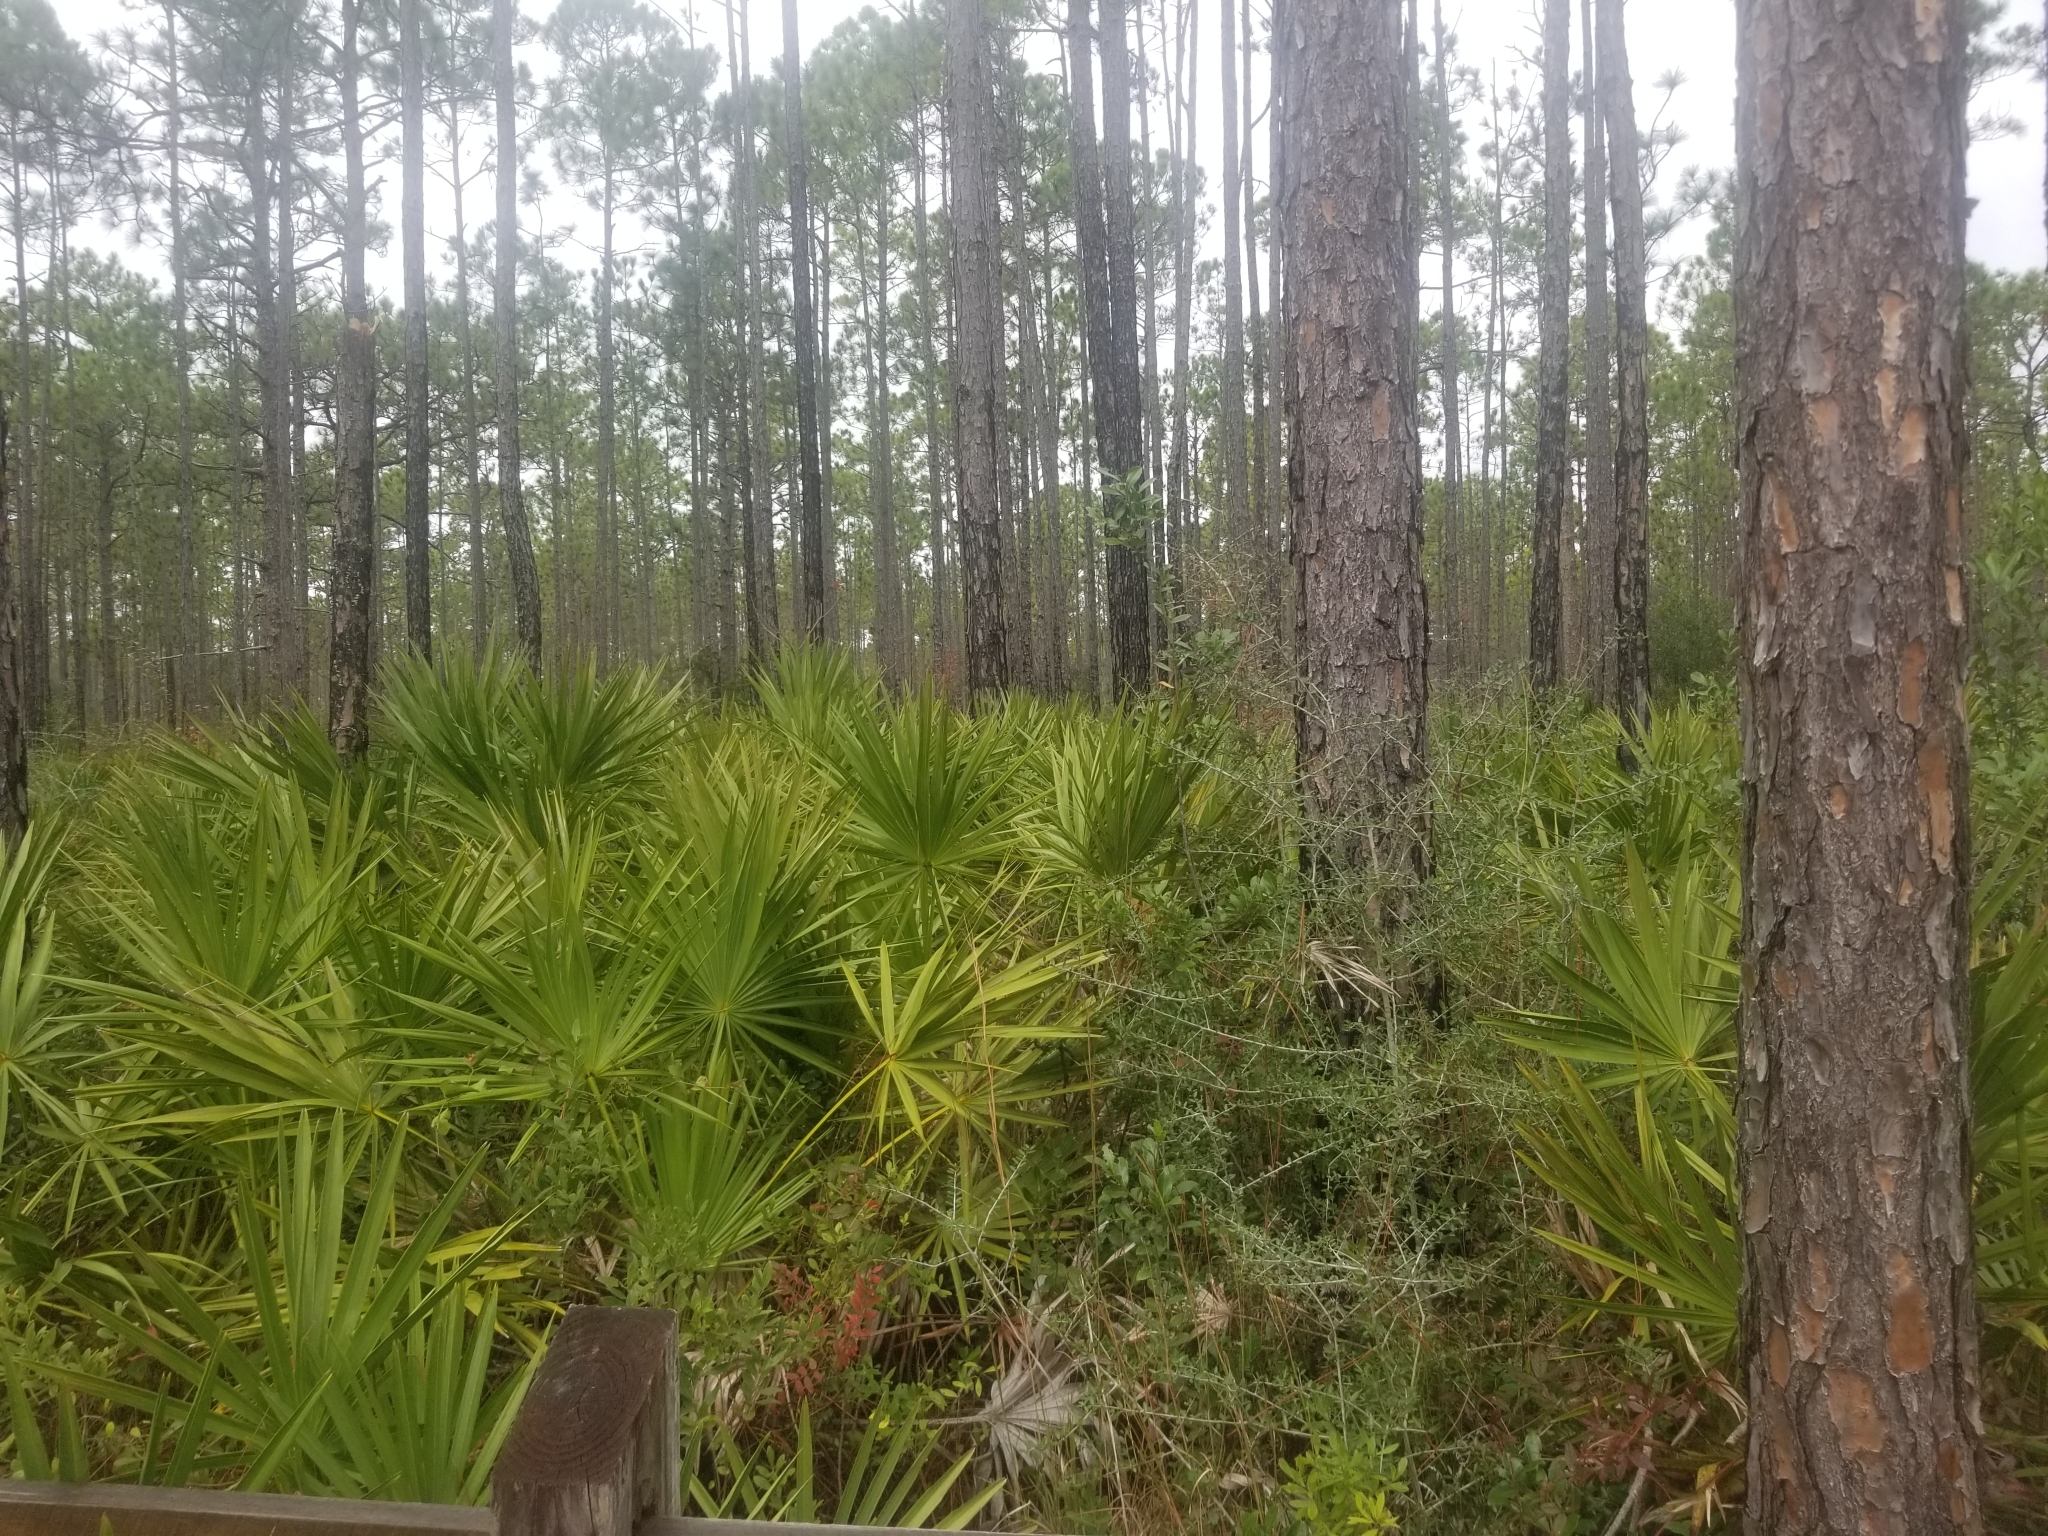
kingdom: Plantae
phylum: Tracheophyta
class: Liliopsida
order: Arecales
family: Arecaceae
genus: Serenoa
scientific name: Serenoa repens
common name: Saw-palmetto
